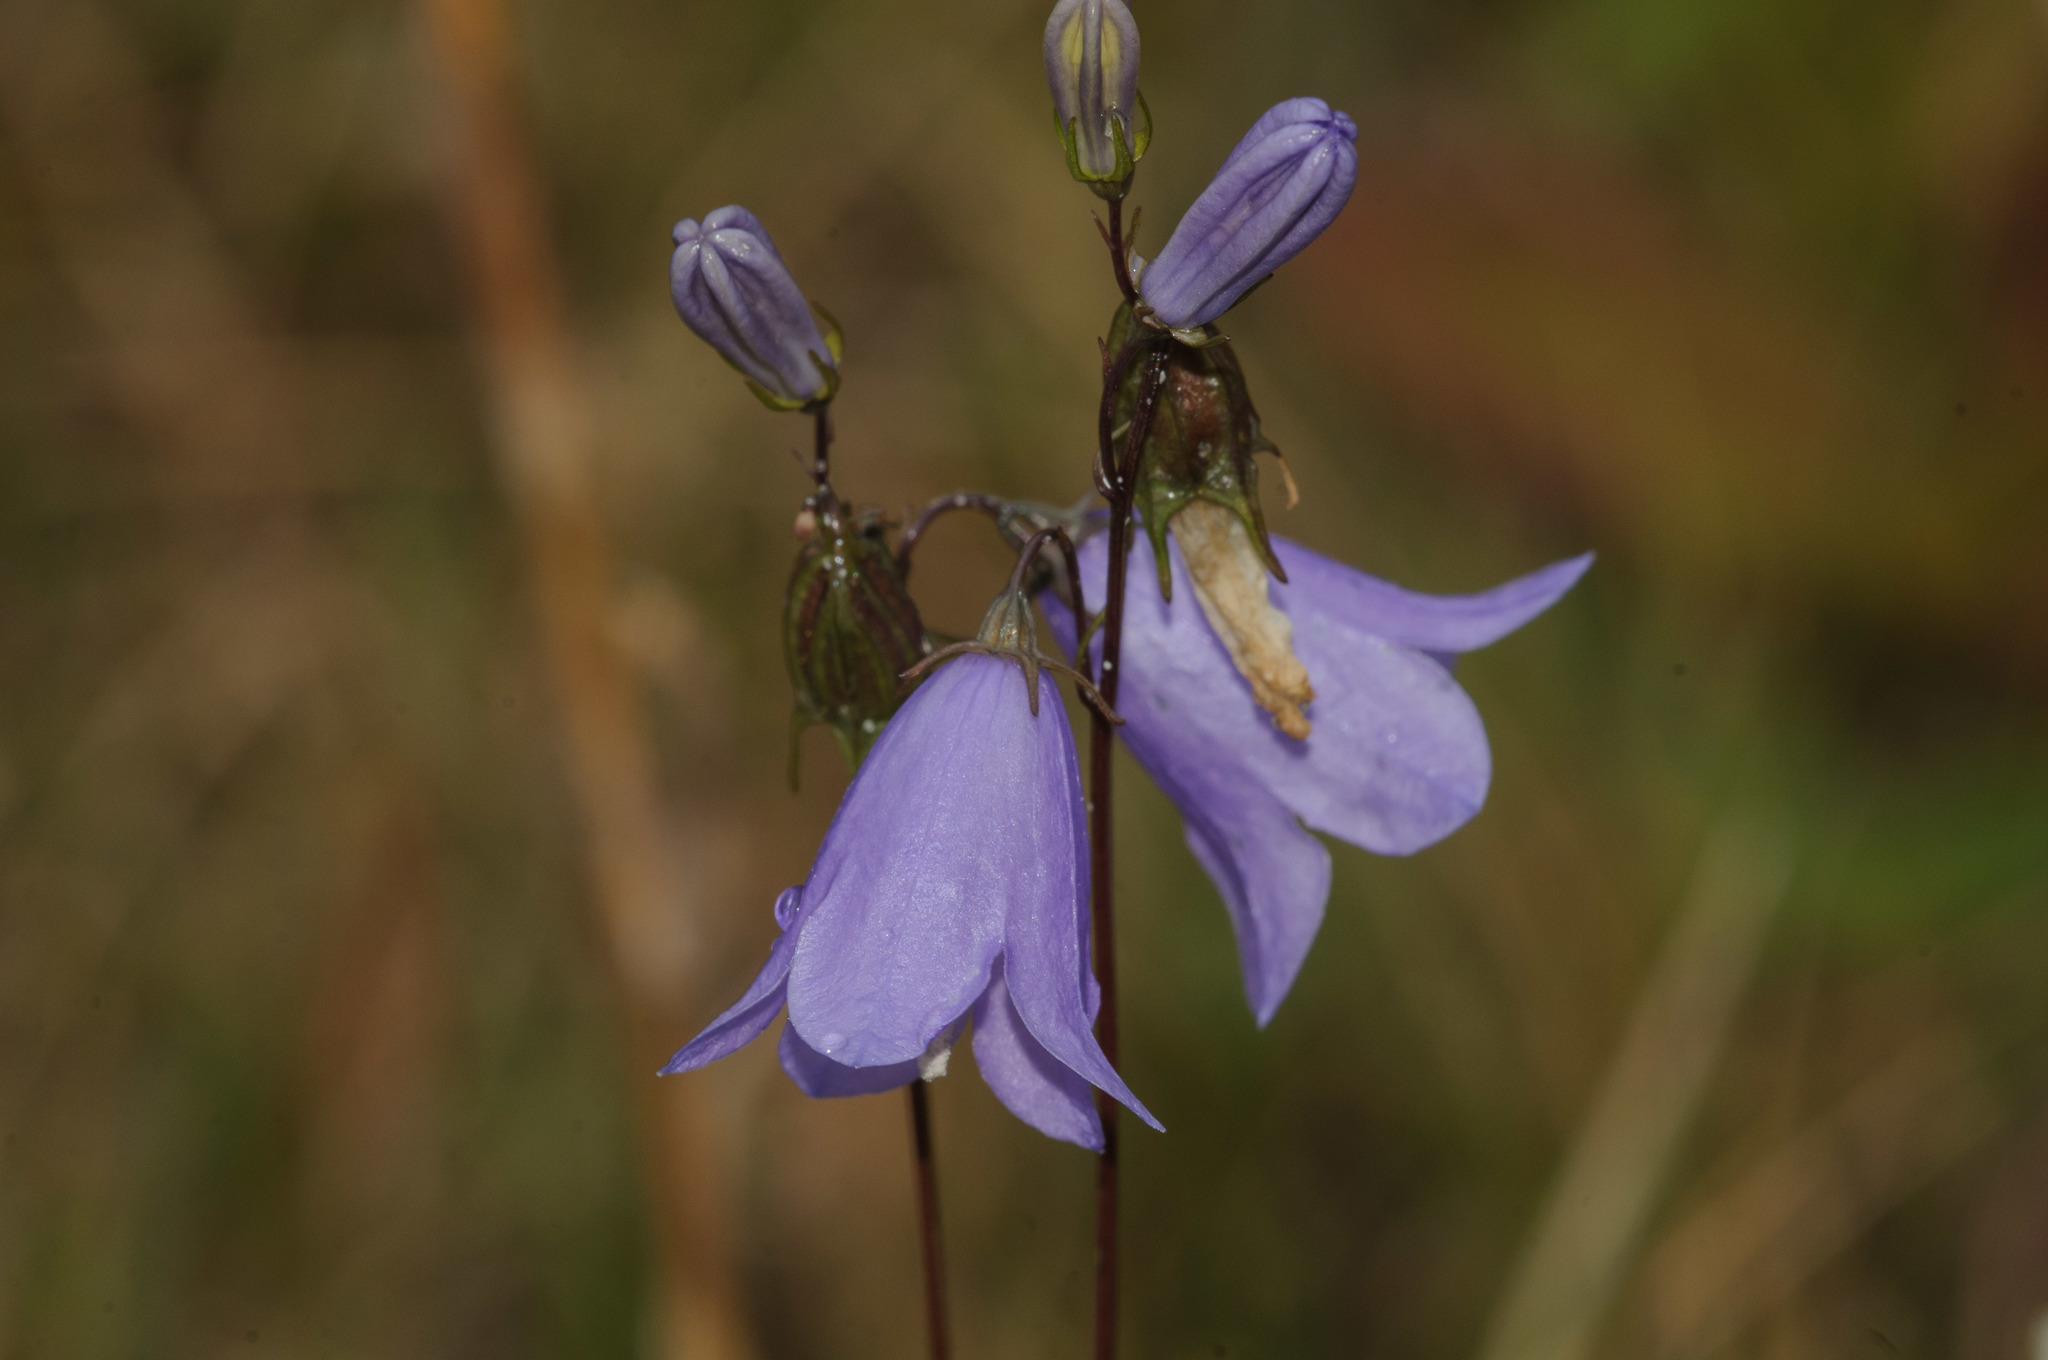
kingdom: Plantae
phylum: Tracheophyta
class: Magnoliopsida
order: Asterales
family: Campanulaceae
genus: Campanula
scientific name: Campanula alaskana
